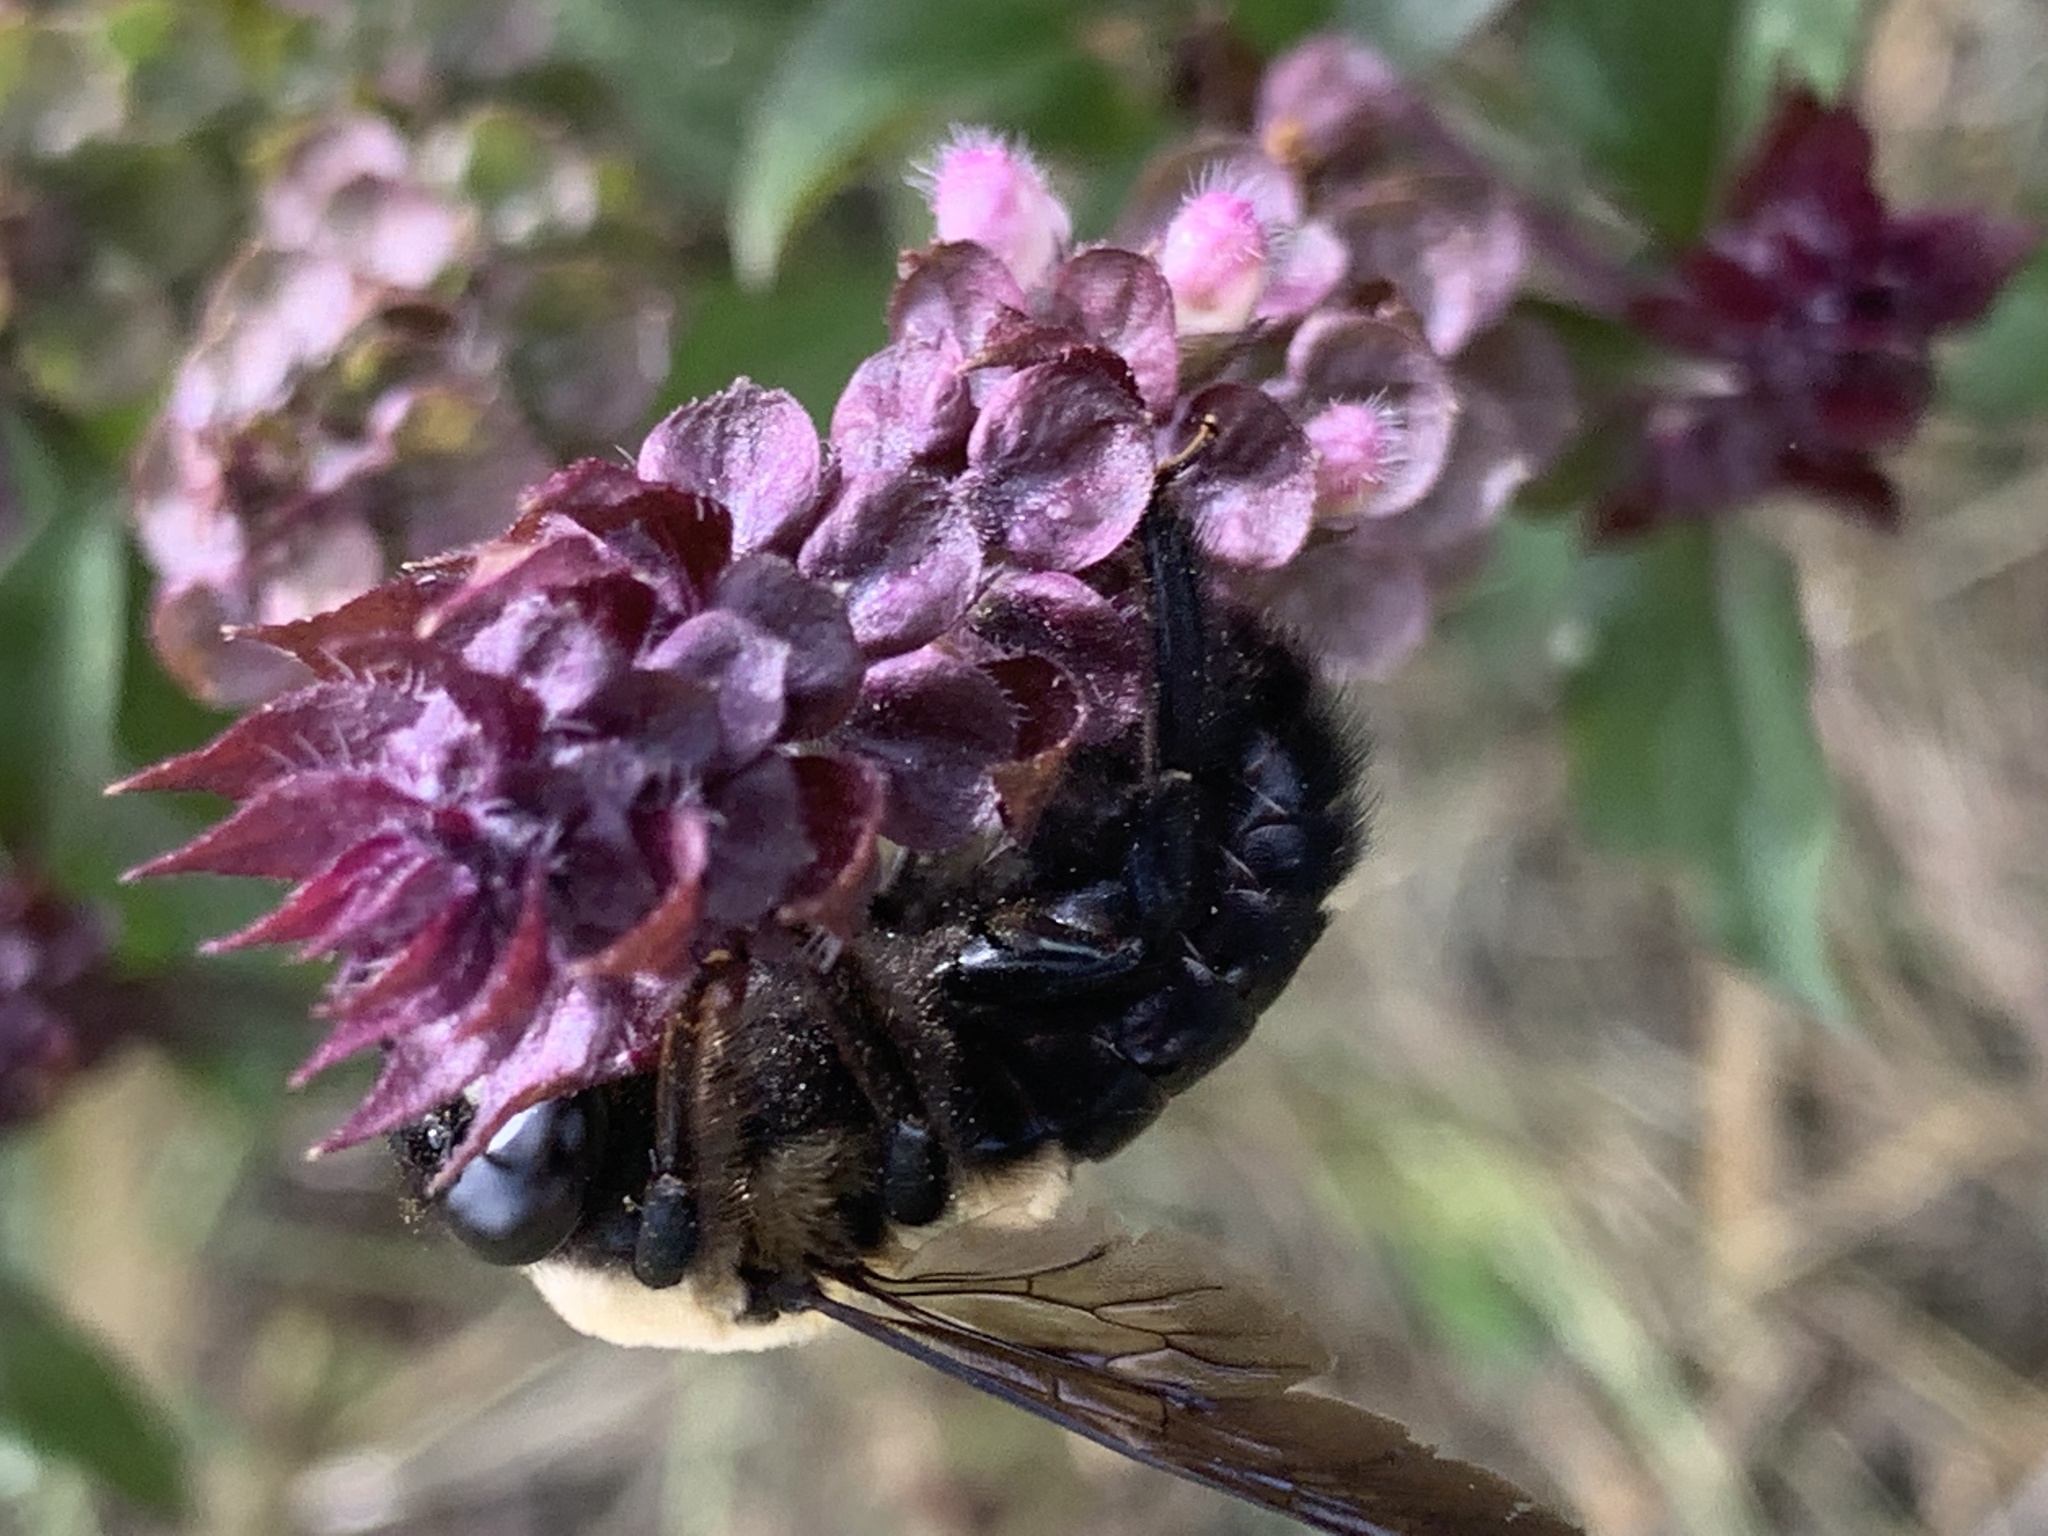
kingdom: Animalia
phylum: Arthropoda
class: Insecta
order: Hymenoptera
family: Apidae
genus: Xylocopa
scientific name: Xylocopa virginica
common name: Carpenter bee
